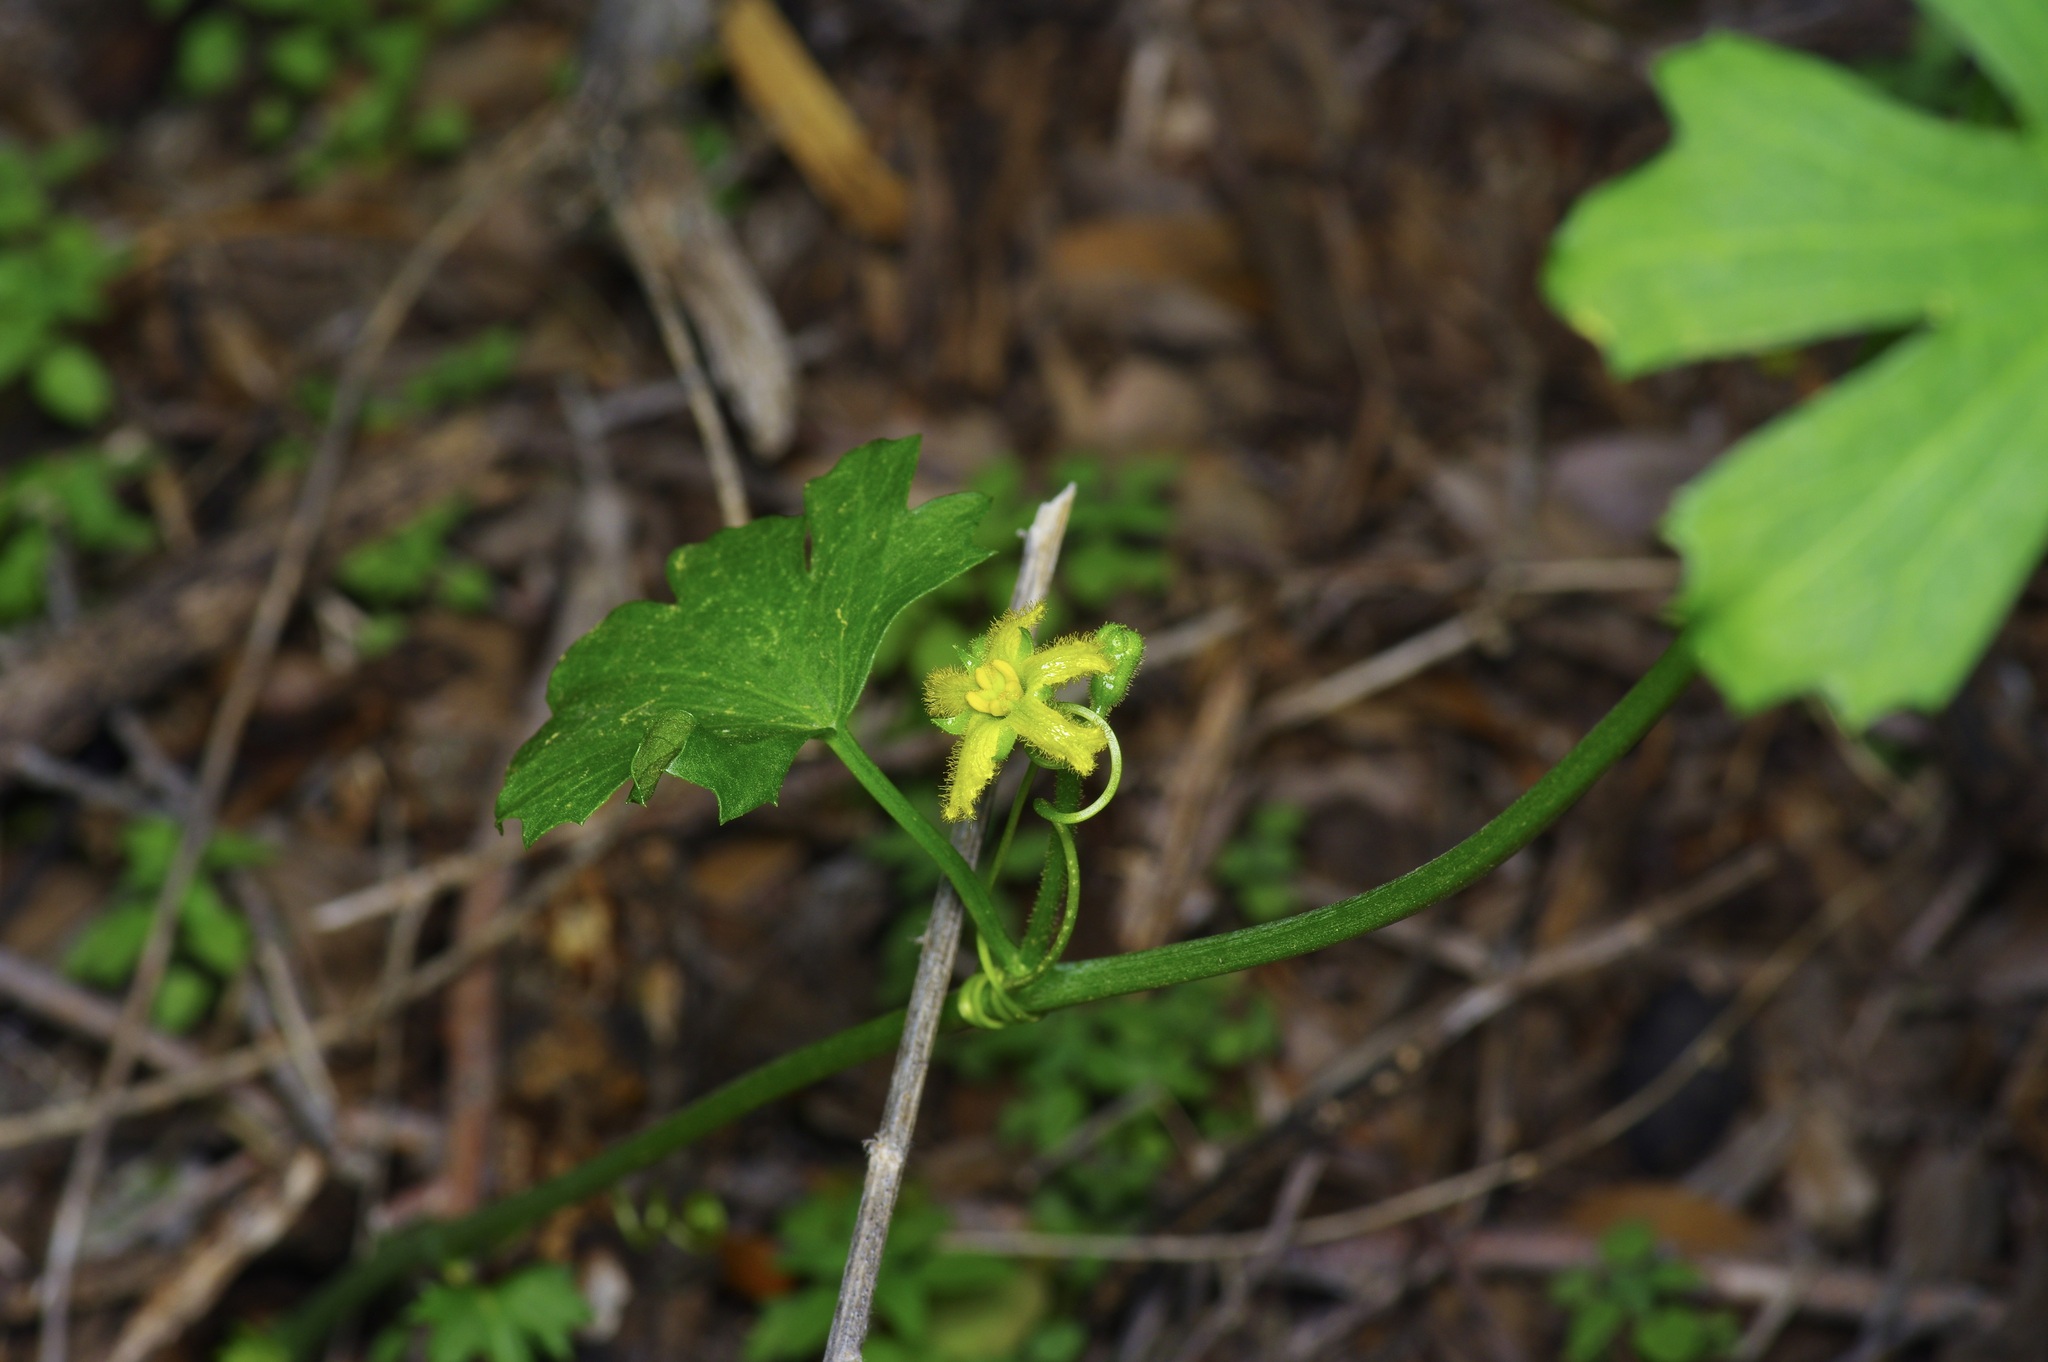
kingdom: Plantae
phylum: Tracheophyta
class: Magnoliopsida
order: Cucurbitales
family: Cucurbitaceae
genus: Ibervillea
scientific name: Ibervillea lindheimeri
